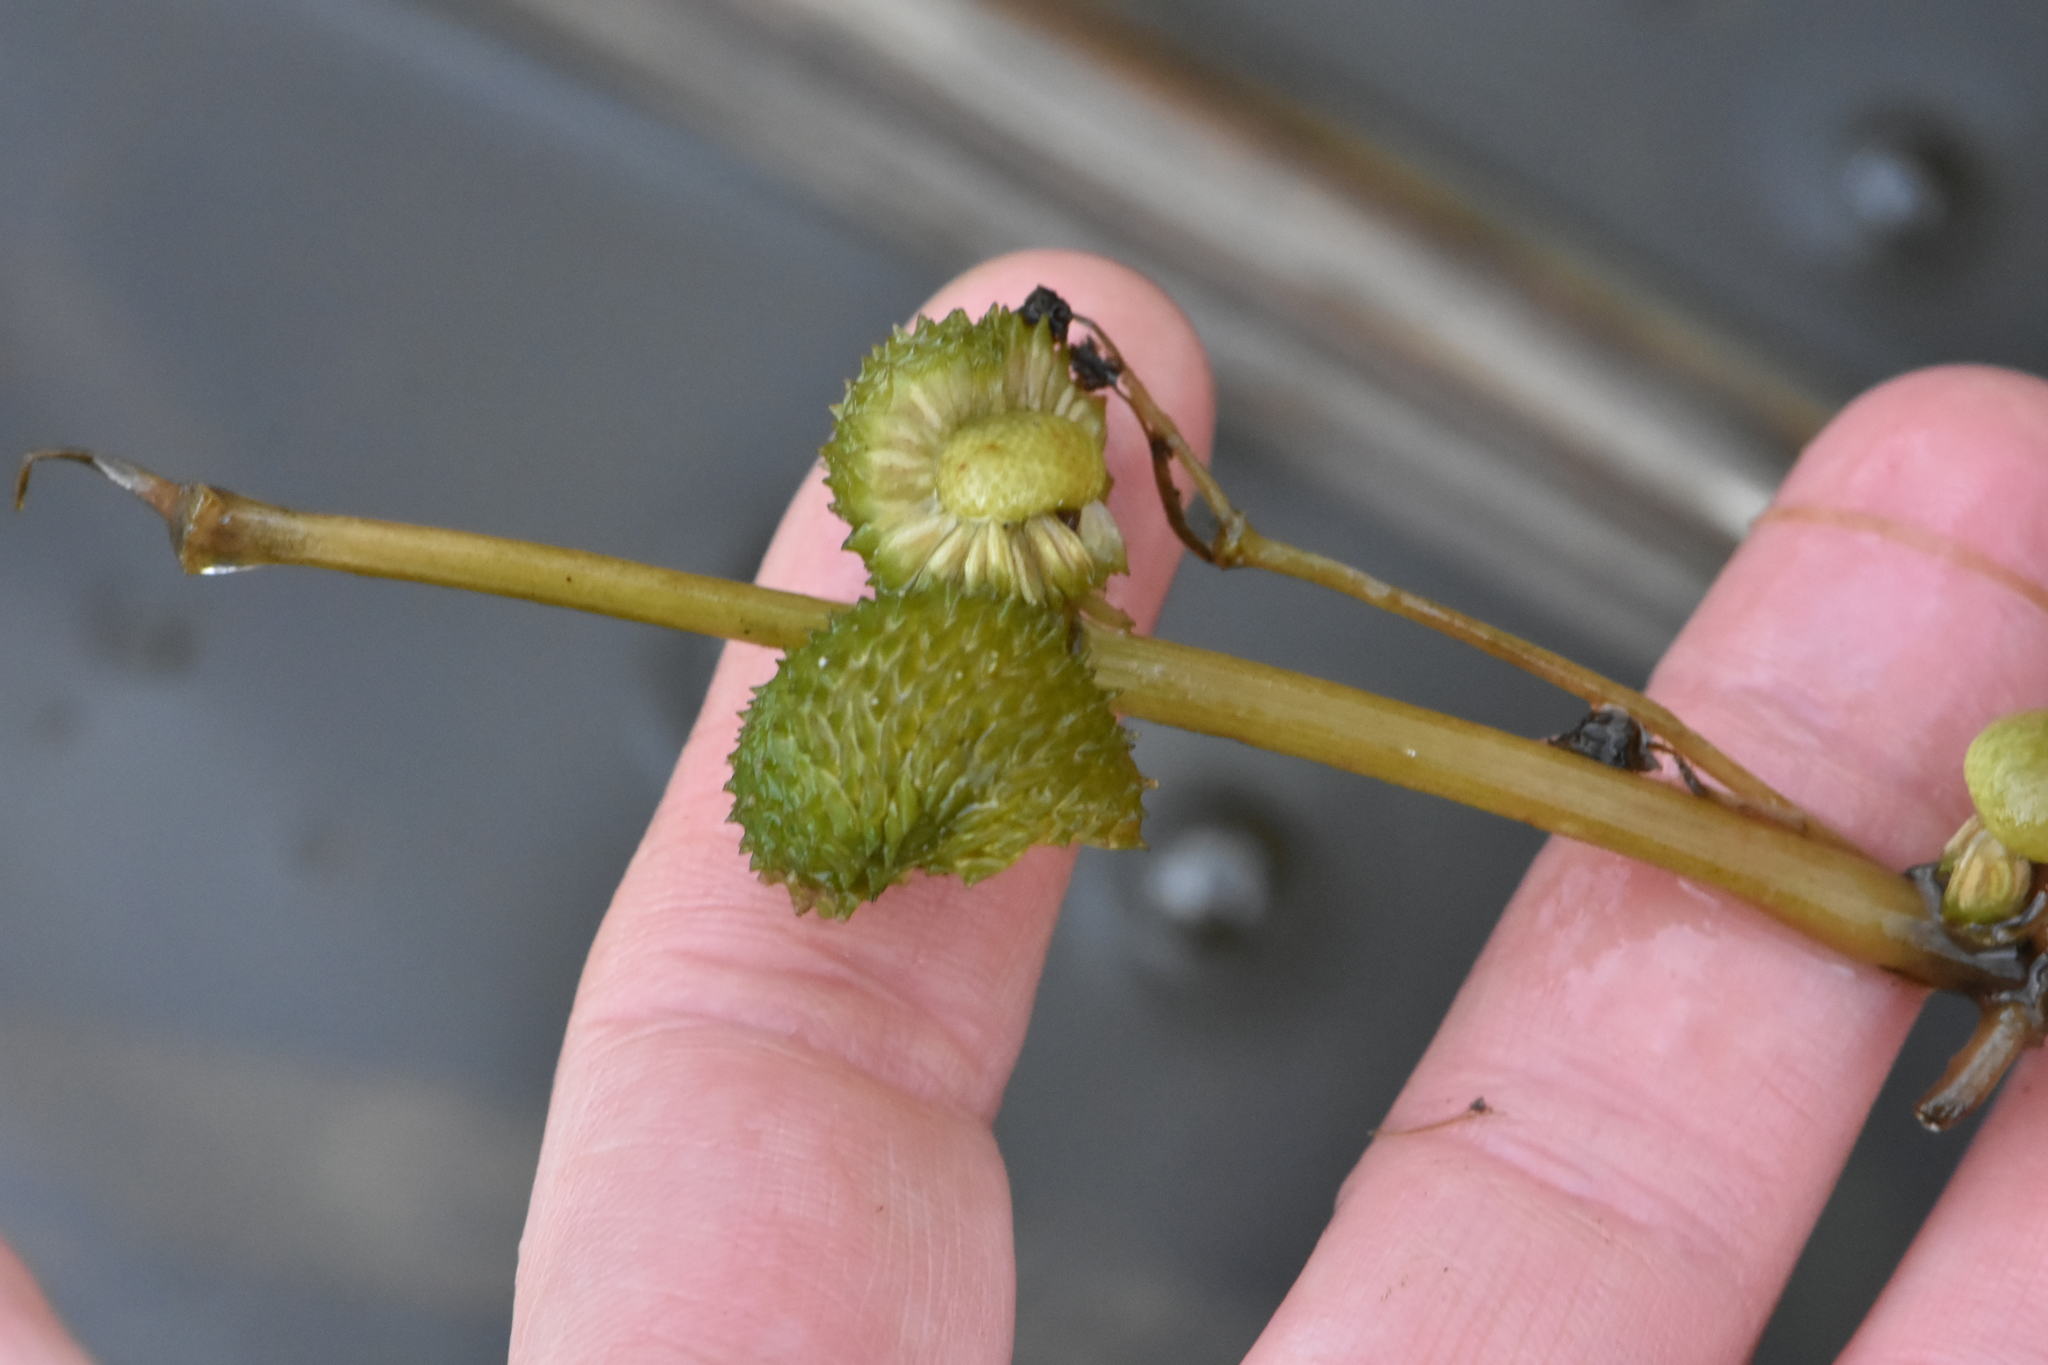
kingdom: Plantae
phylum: Tracheophyta
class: Liliopsida
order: Alismatales
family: Alismataceae
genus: Sagittaria
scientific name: Sagittaria sagittifolia
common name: Arrowhead
